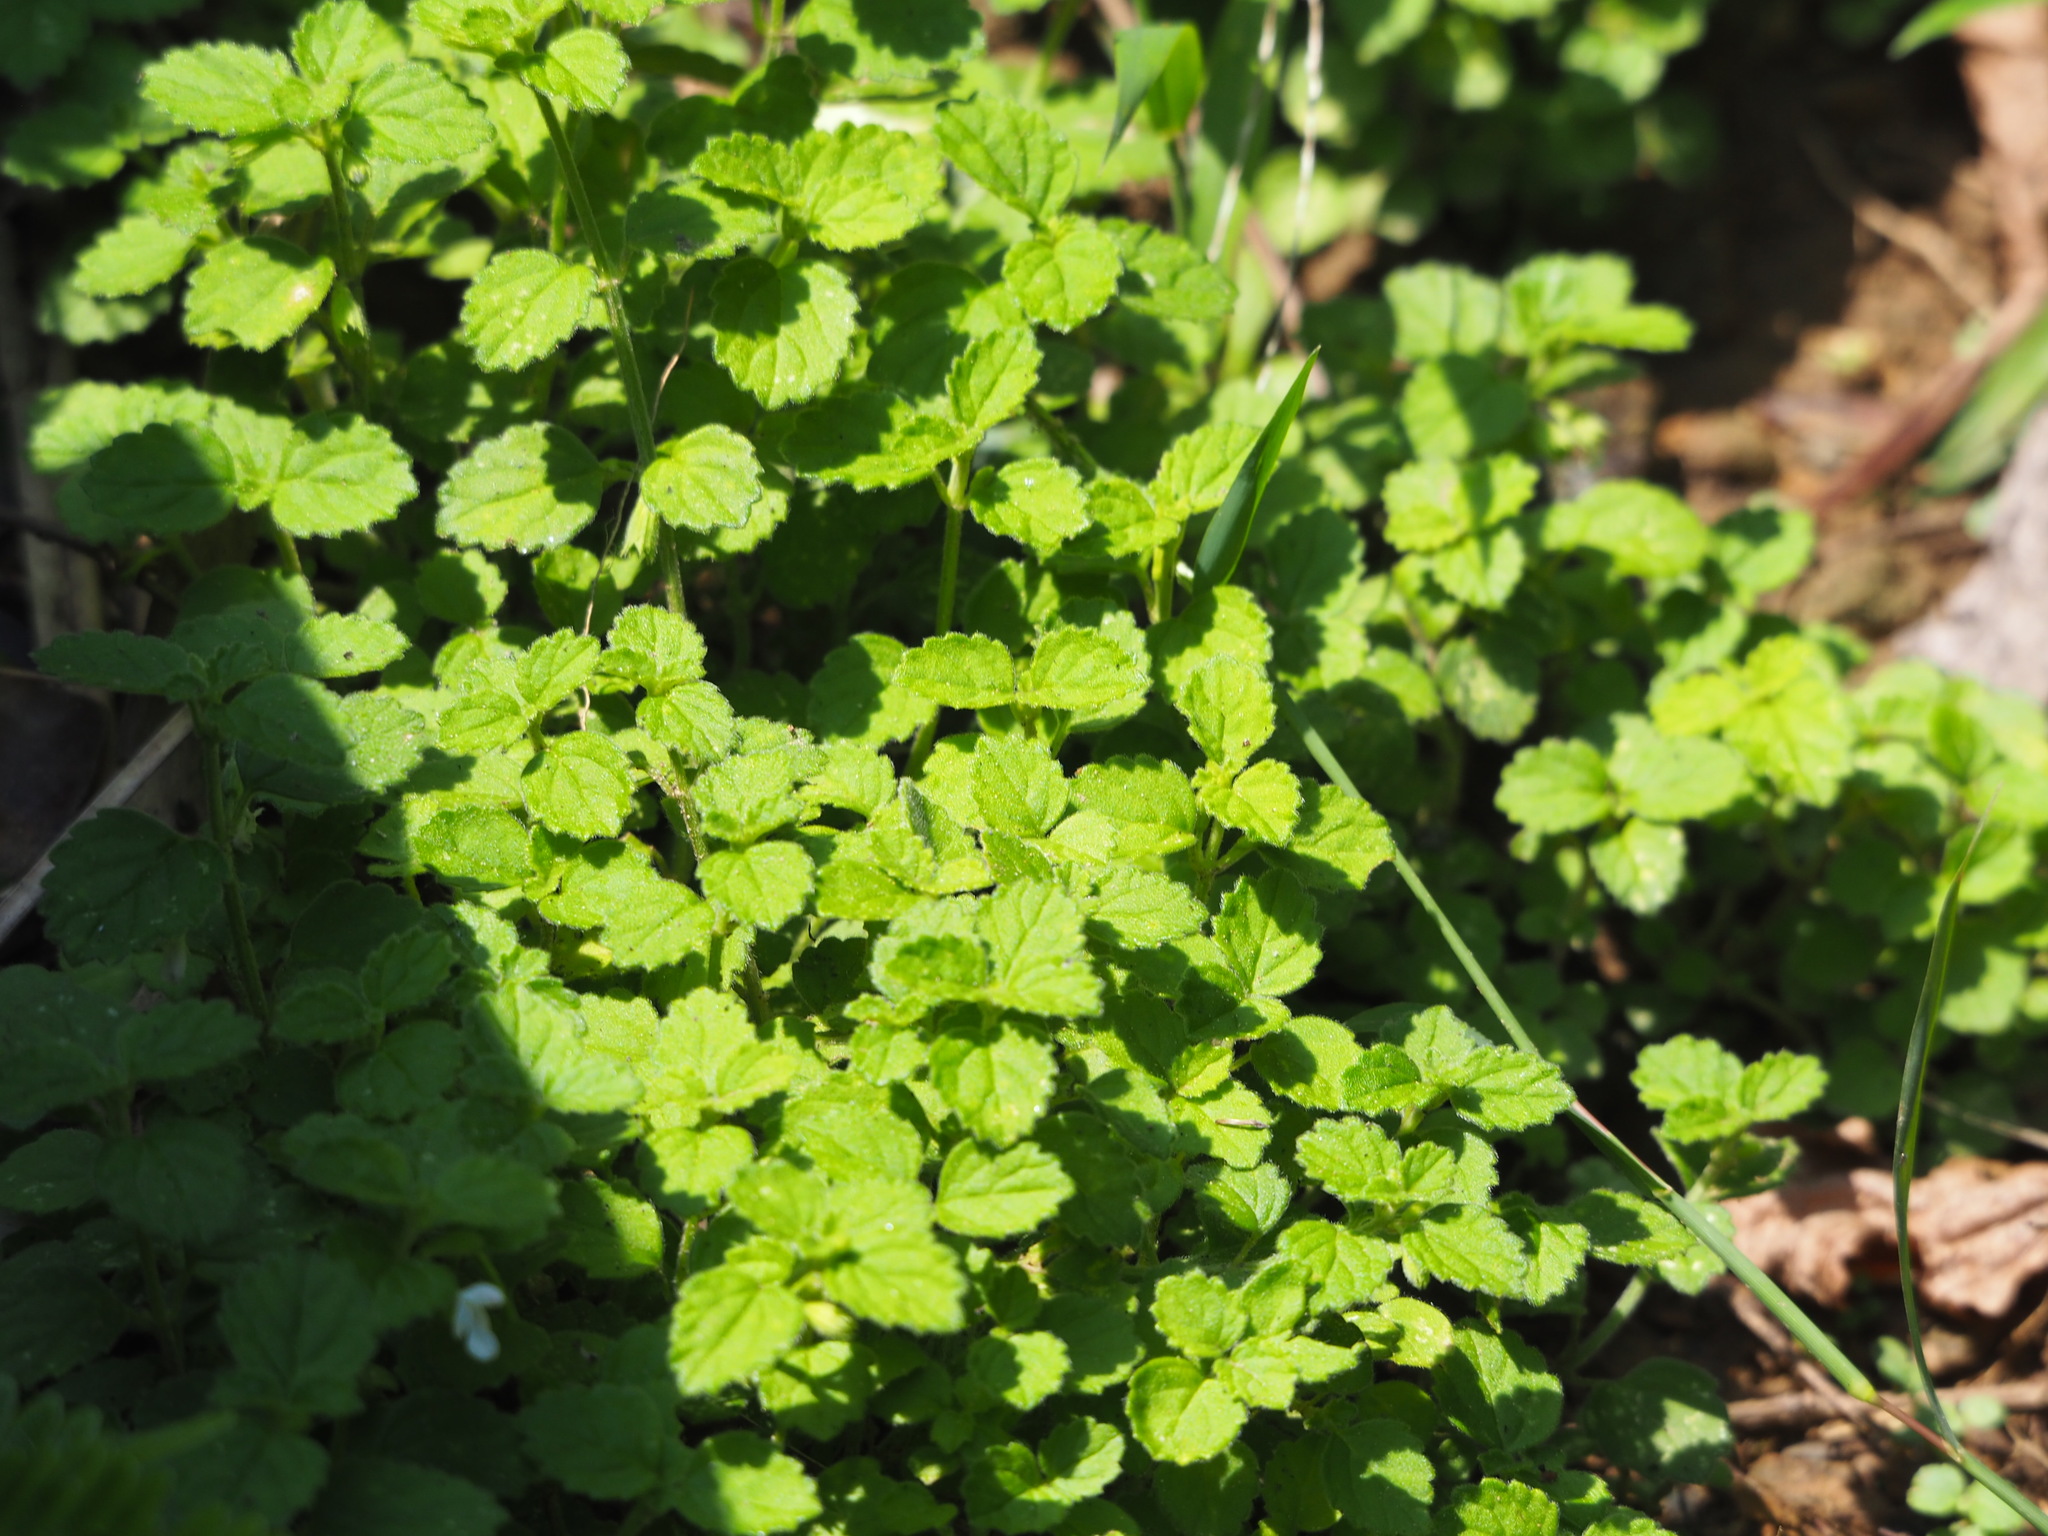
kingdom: Plantae
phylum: Tracheophyta
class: Magnoliopsida
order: Lamiales
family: Lamiaceae
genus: Leucas
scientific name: Leucas chinensis
